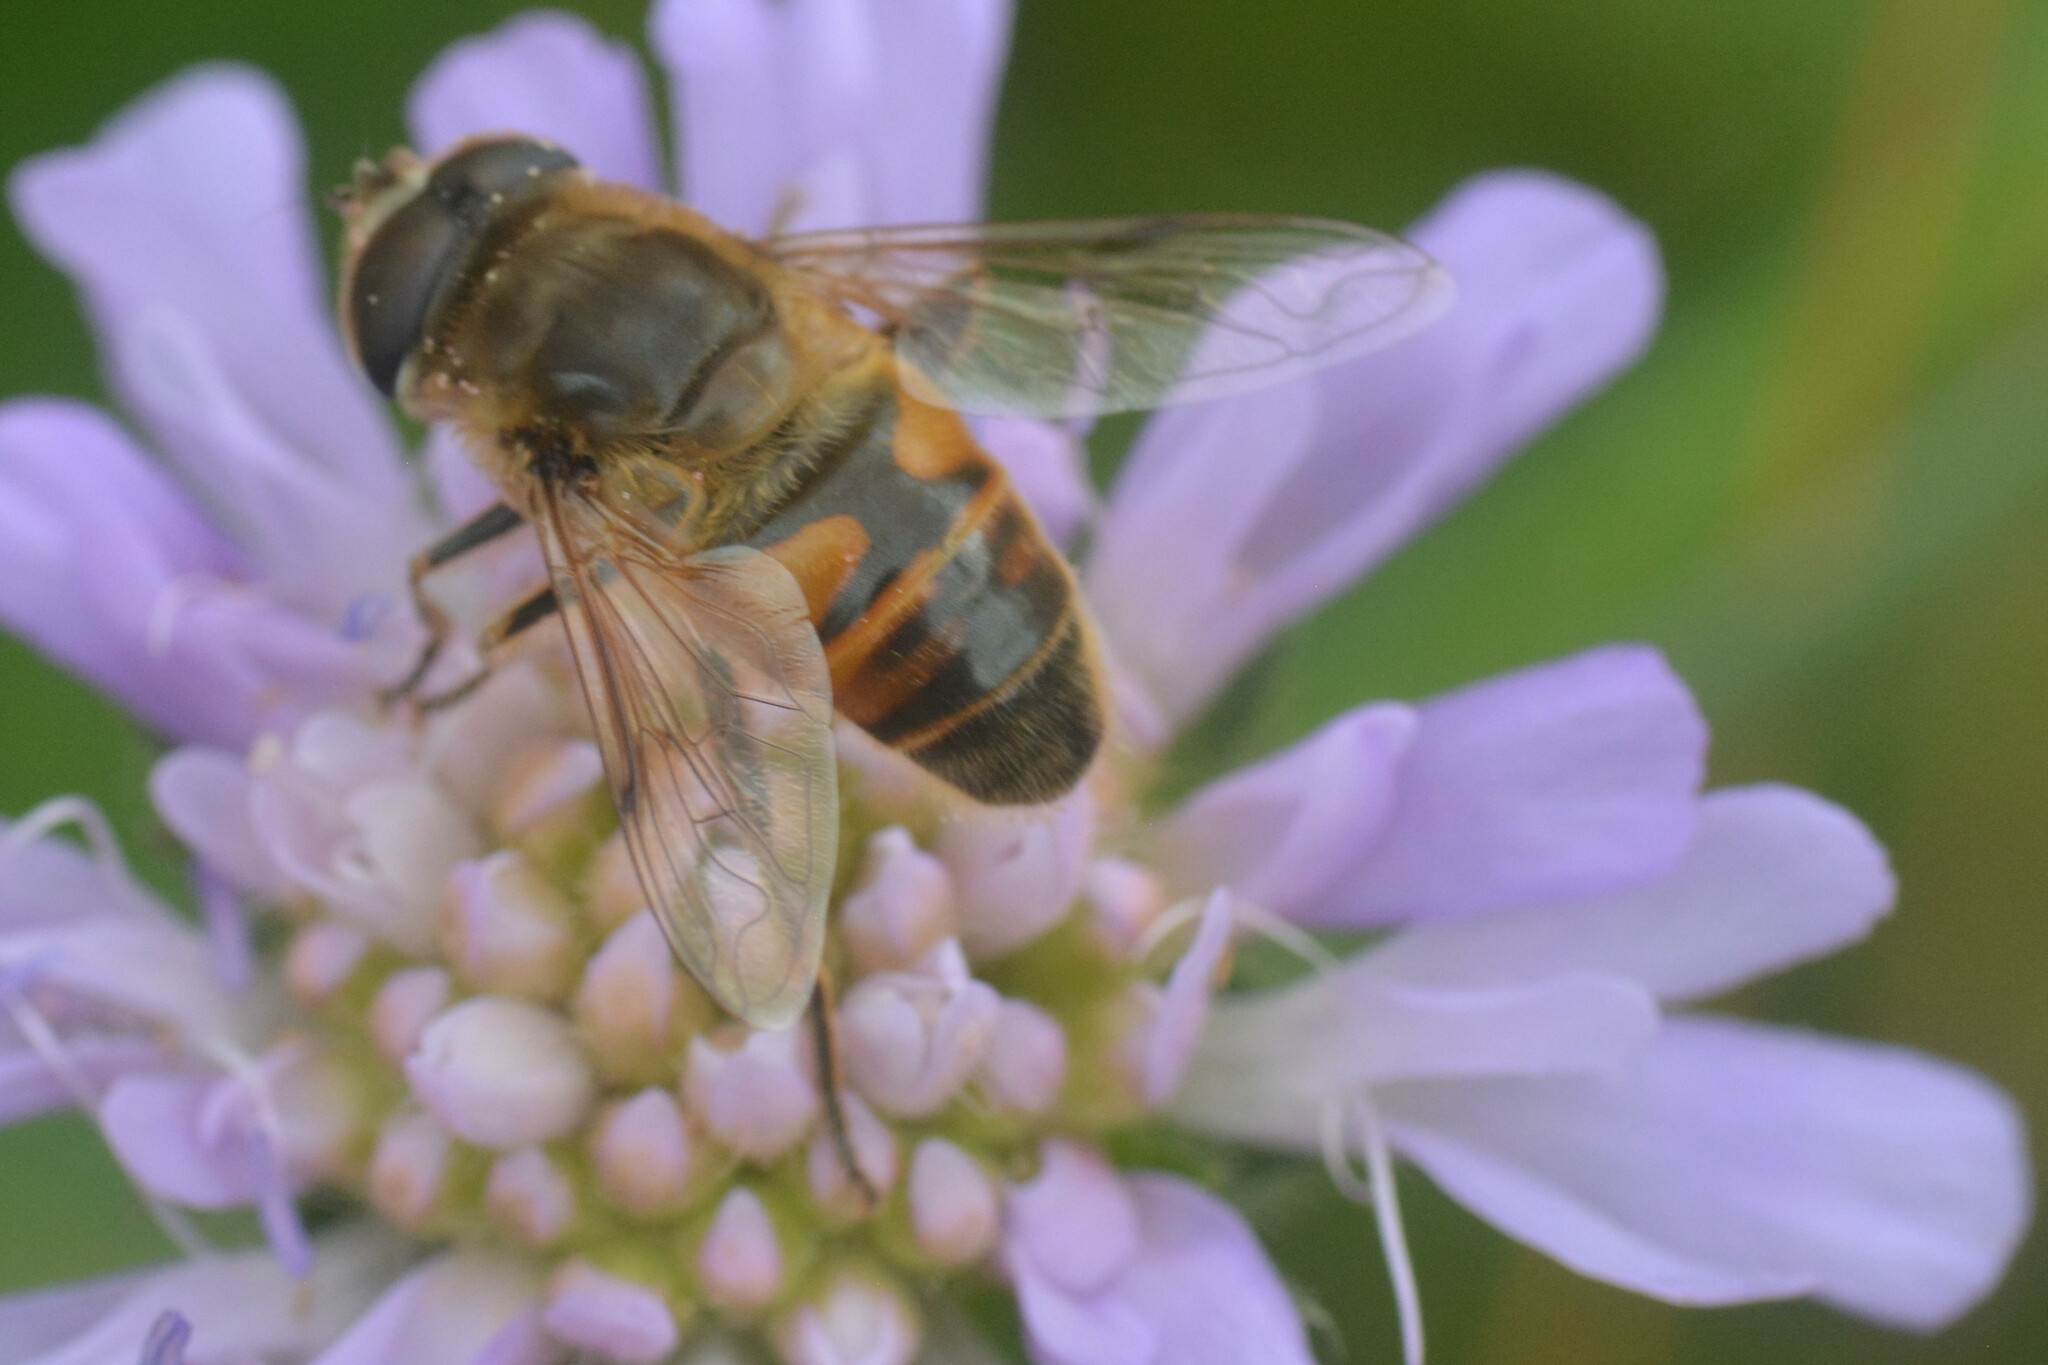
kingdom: Animalia
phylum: Arthropoda
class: Insecta
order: Diptera
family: Syrphidae
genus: Eristalis
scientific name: Eristalis tenax
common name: Drone fly
